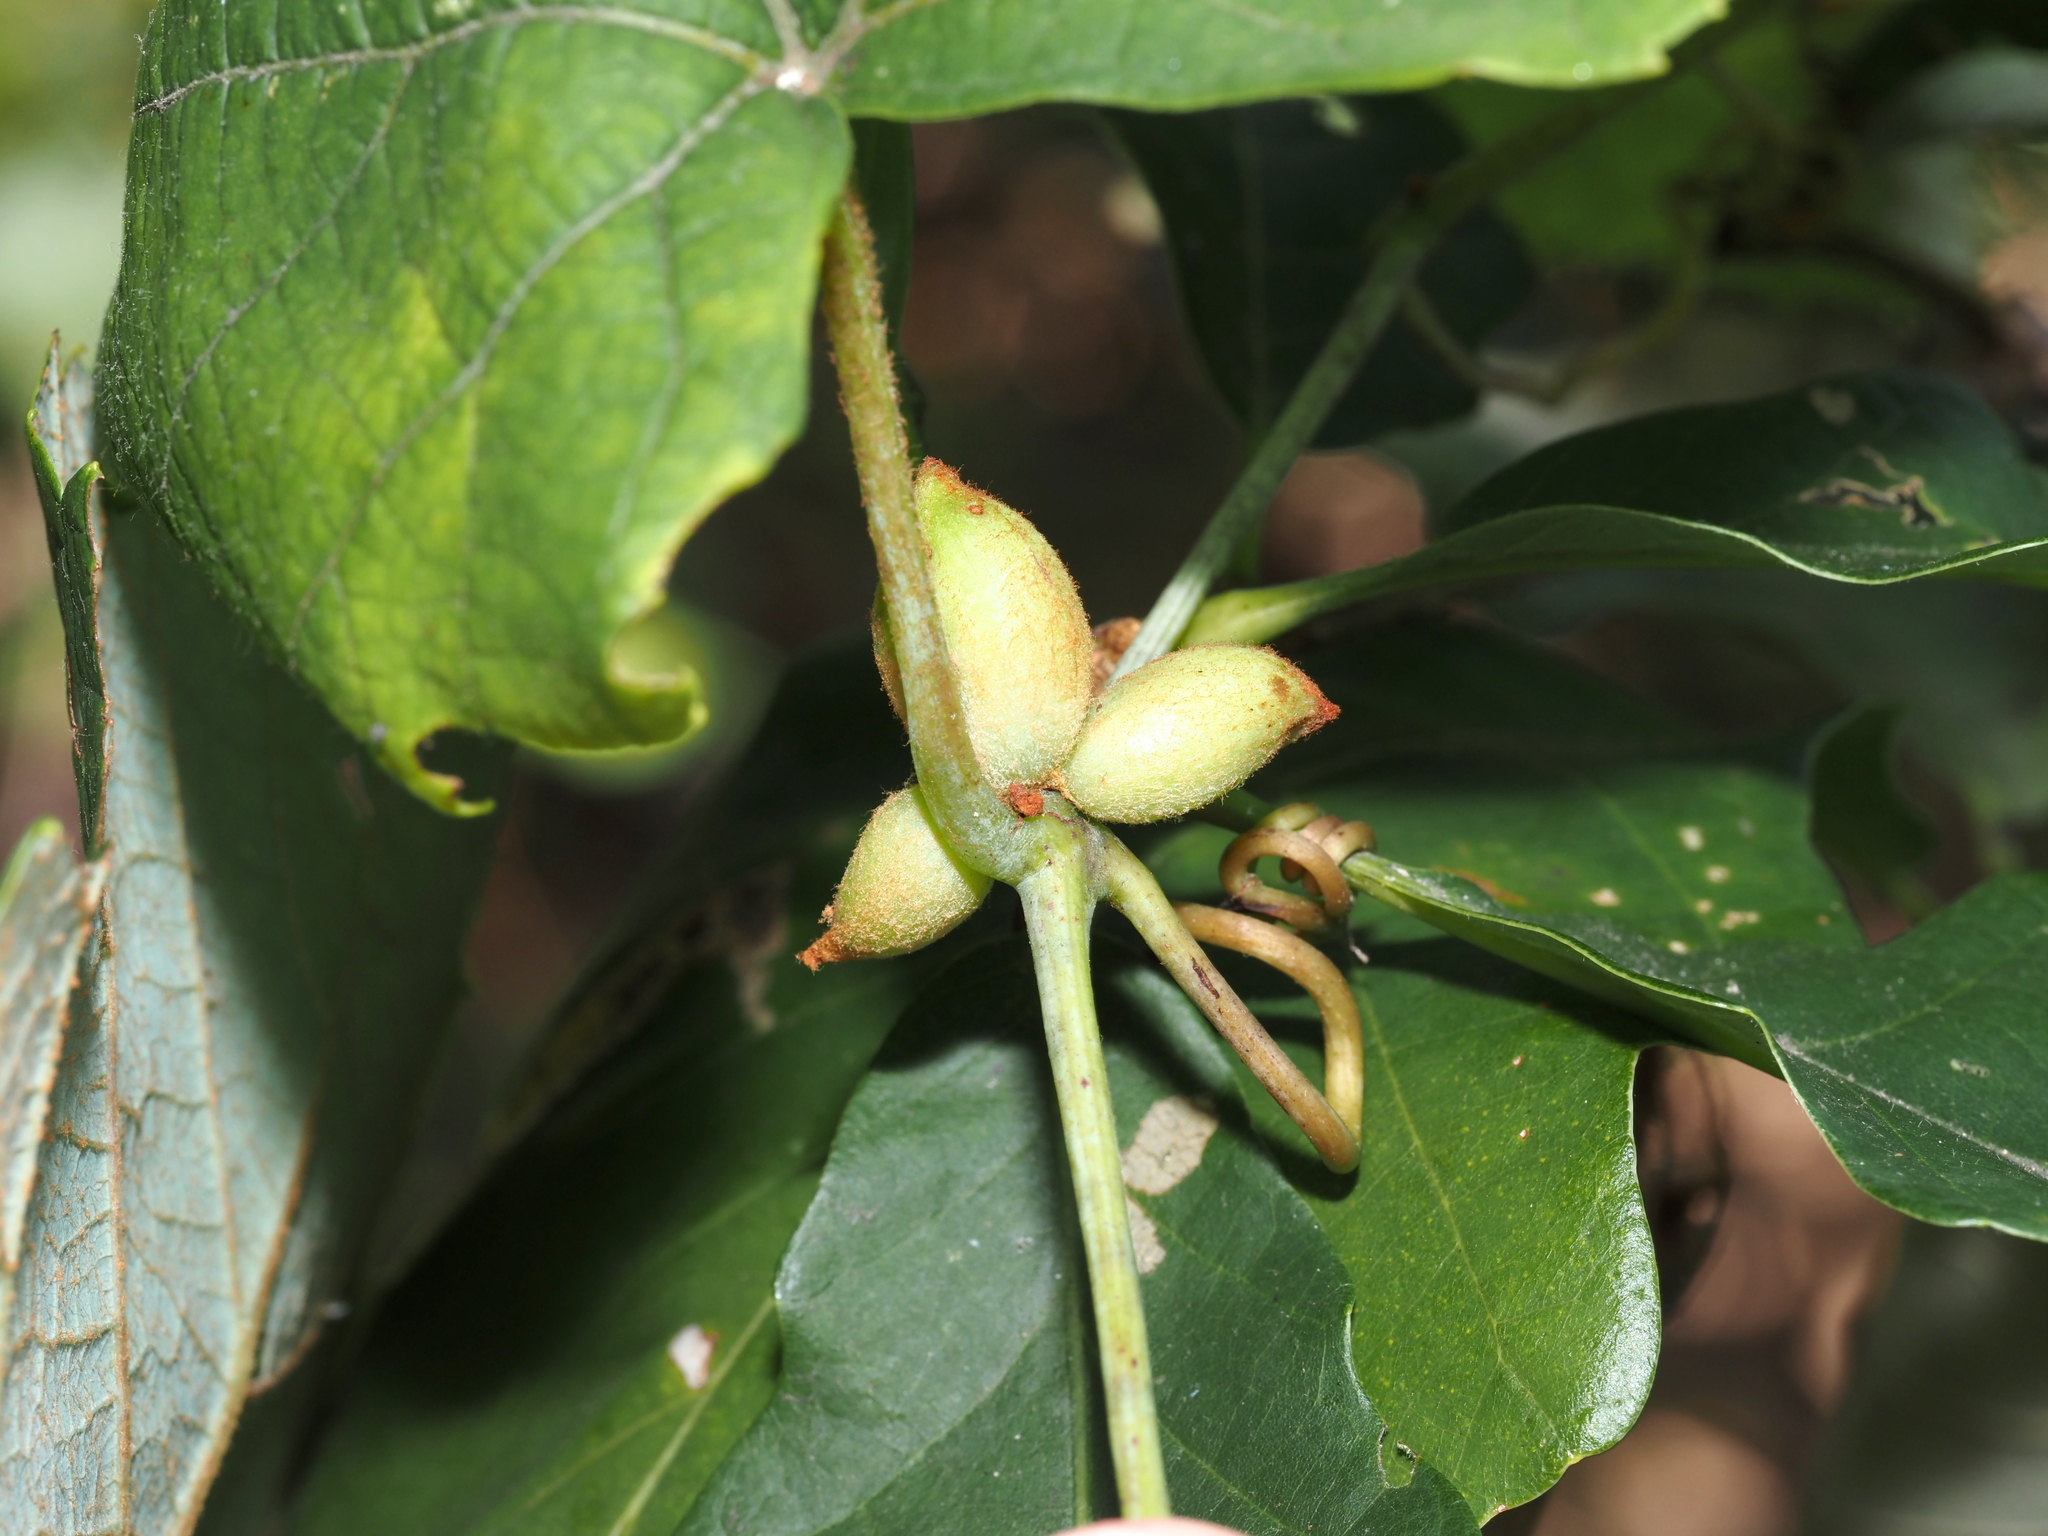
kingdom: Animalia
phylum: Arthropoda
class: Insecta
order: Diptera
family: Cecidomyiidae
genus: Ampelomyia
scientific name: Ampelomyia vitispomum
